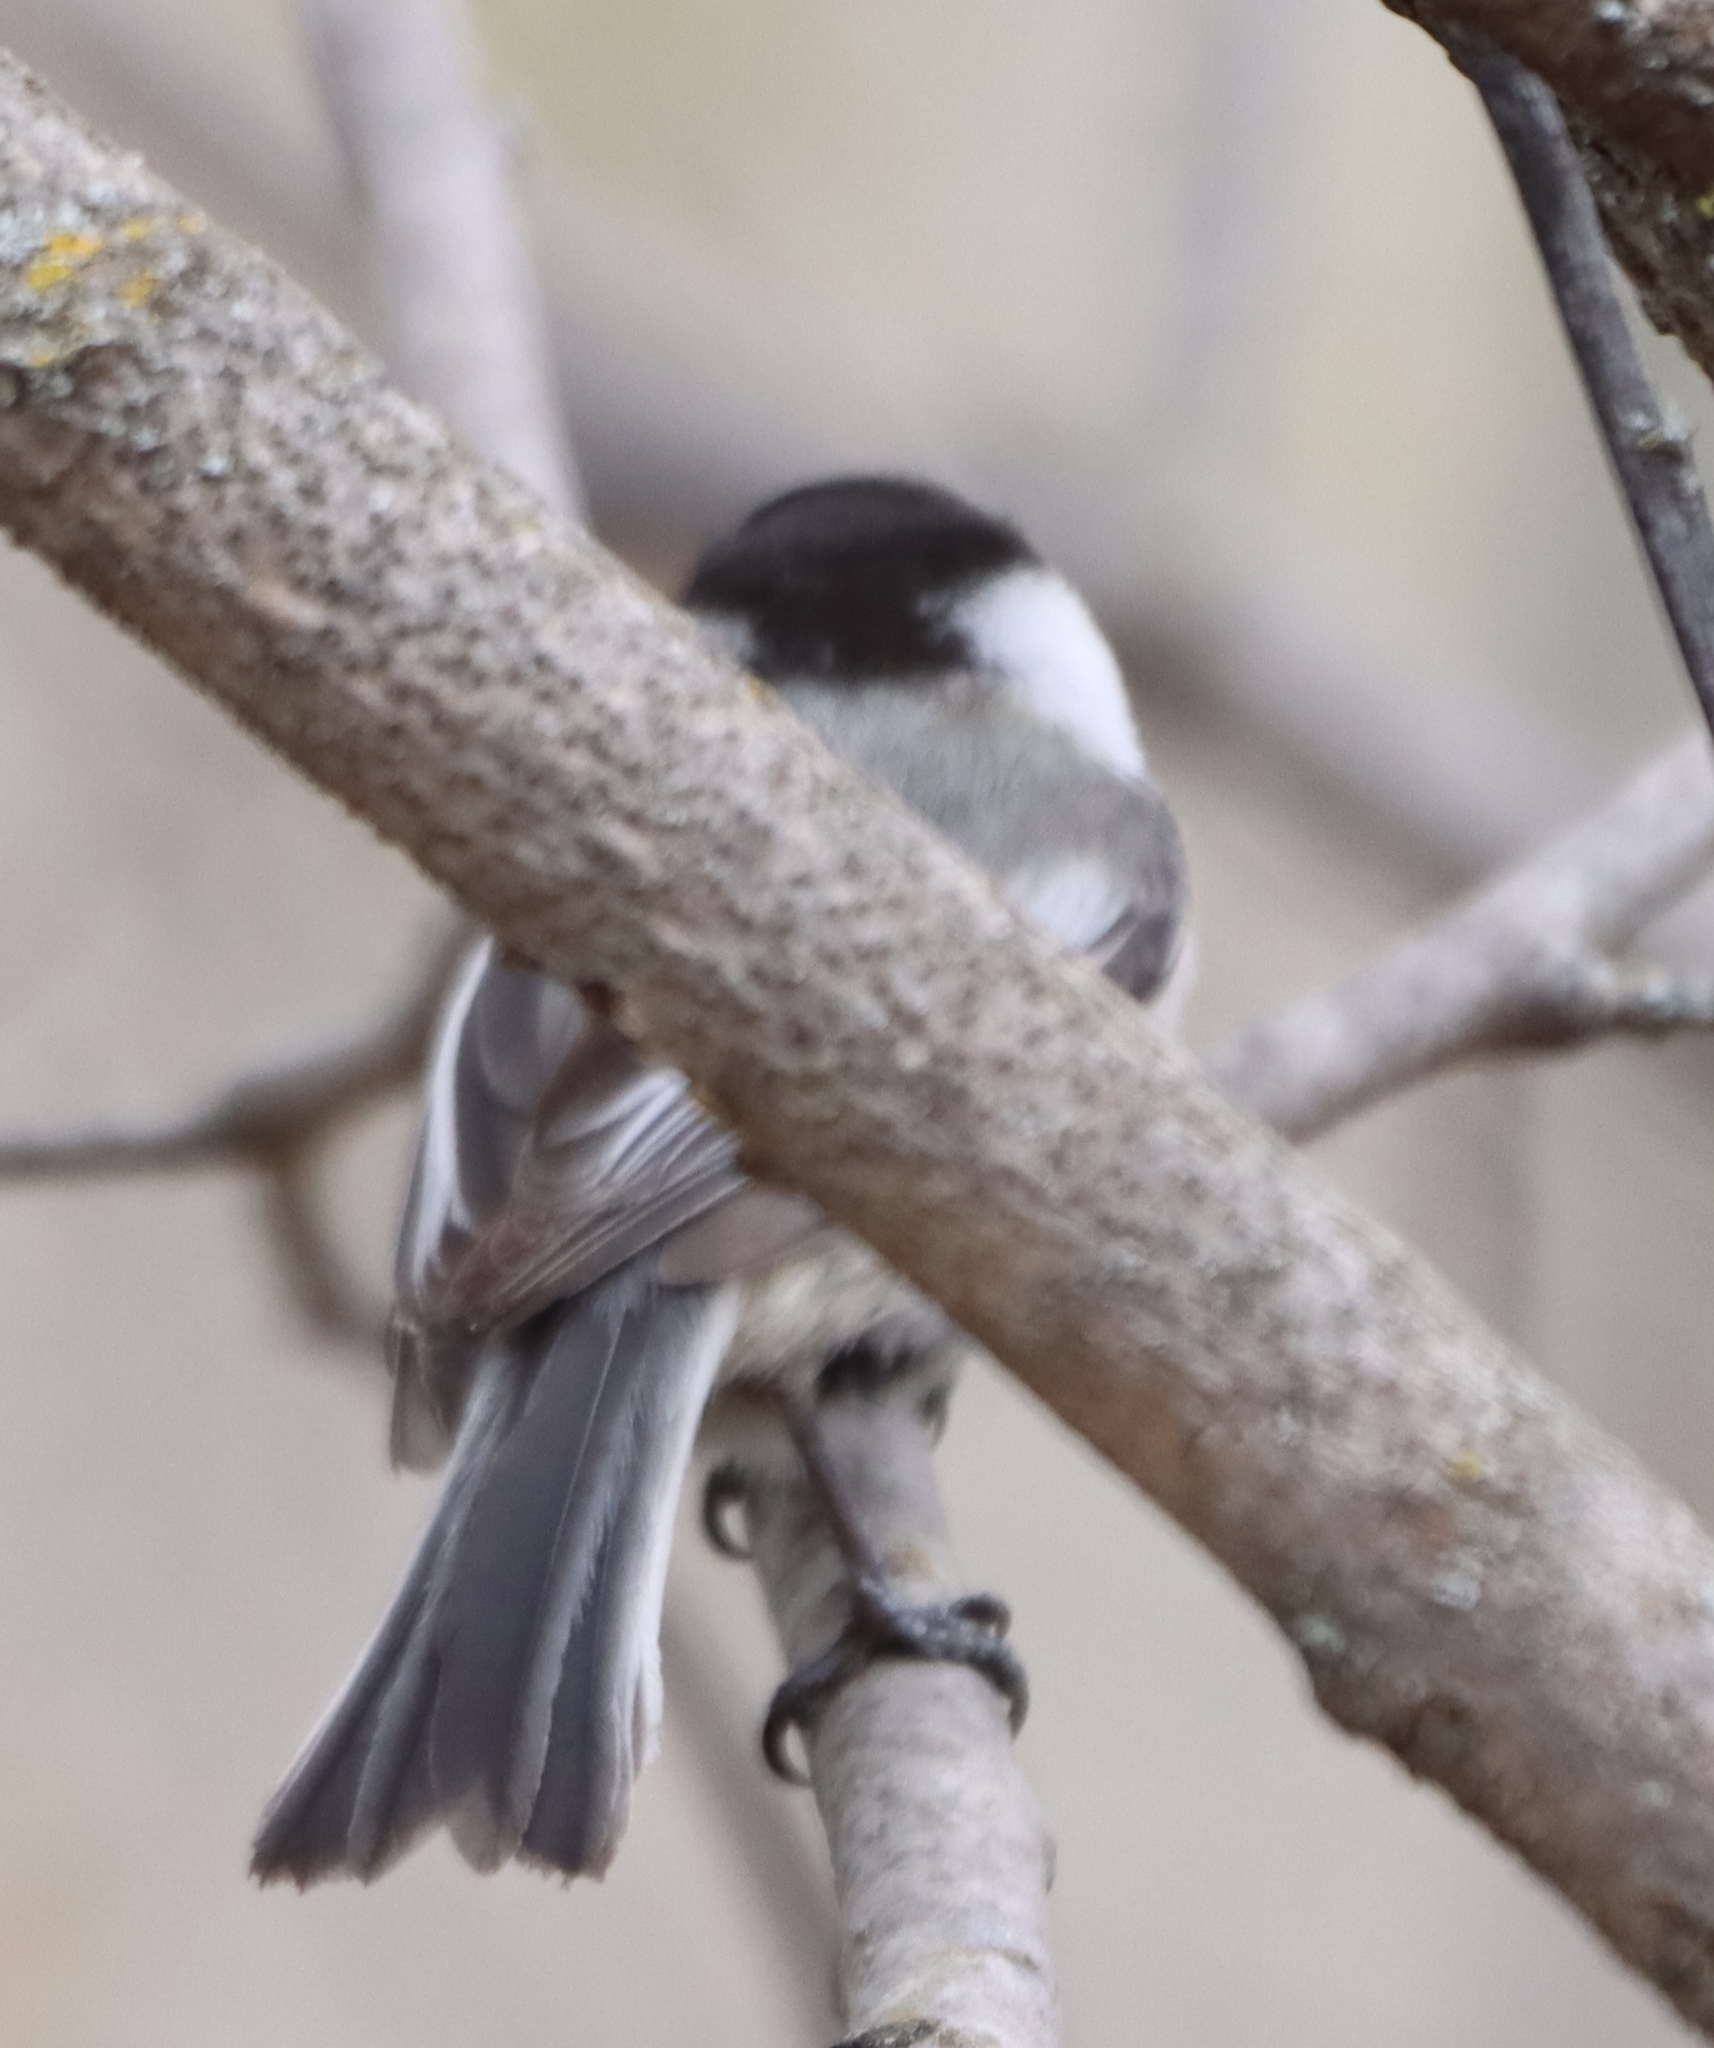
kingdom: Animalia
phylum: Chordata
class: Aves
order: Passeriformes
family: Paridae
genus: Poecile
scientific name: Poecile atricapillus
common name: Black-capped chickadee
